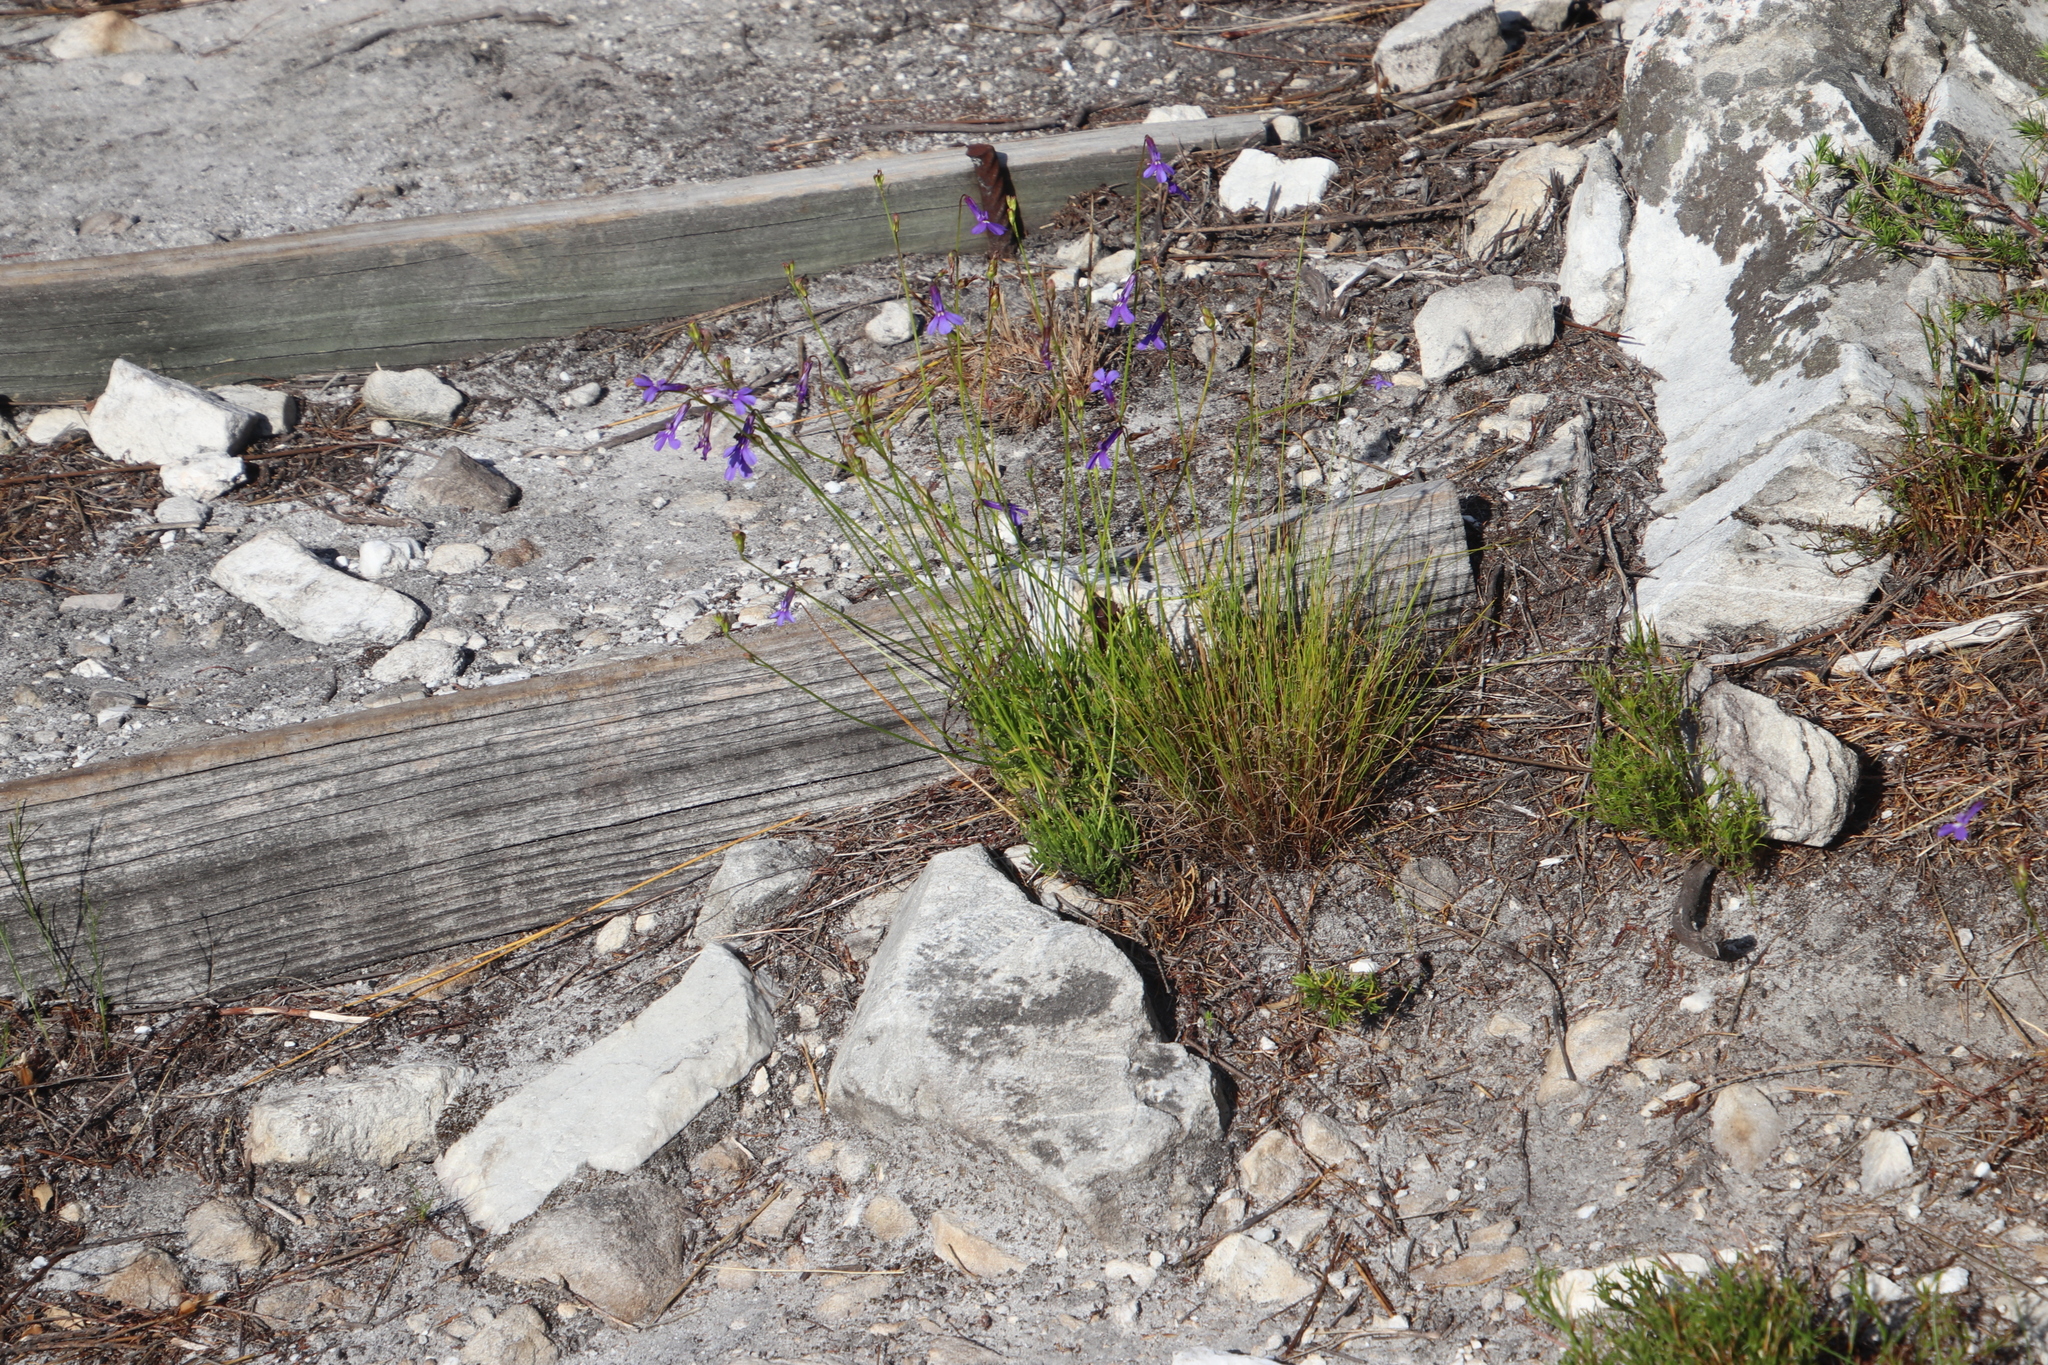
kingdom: Plantae
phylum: Tracheophyta
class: Magnoliopsida
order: Asterales
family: Campanulaceae
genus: Lobelia
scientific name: Lobelia coronopifolia
